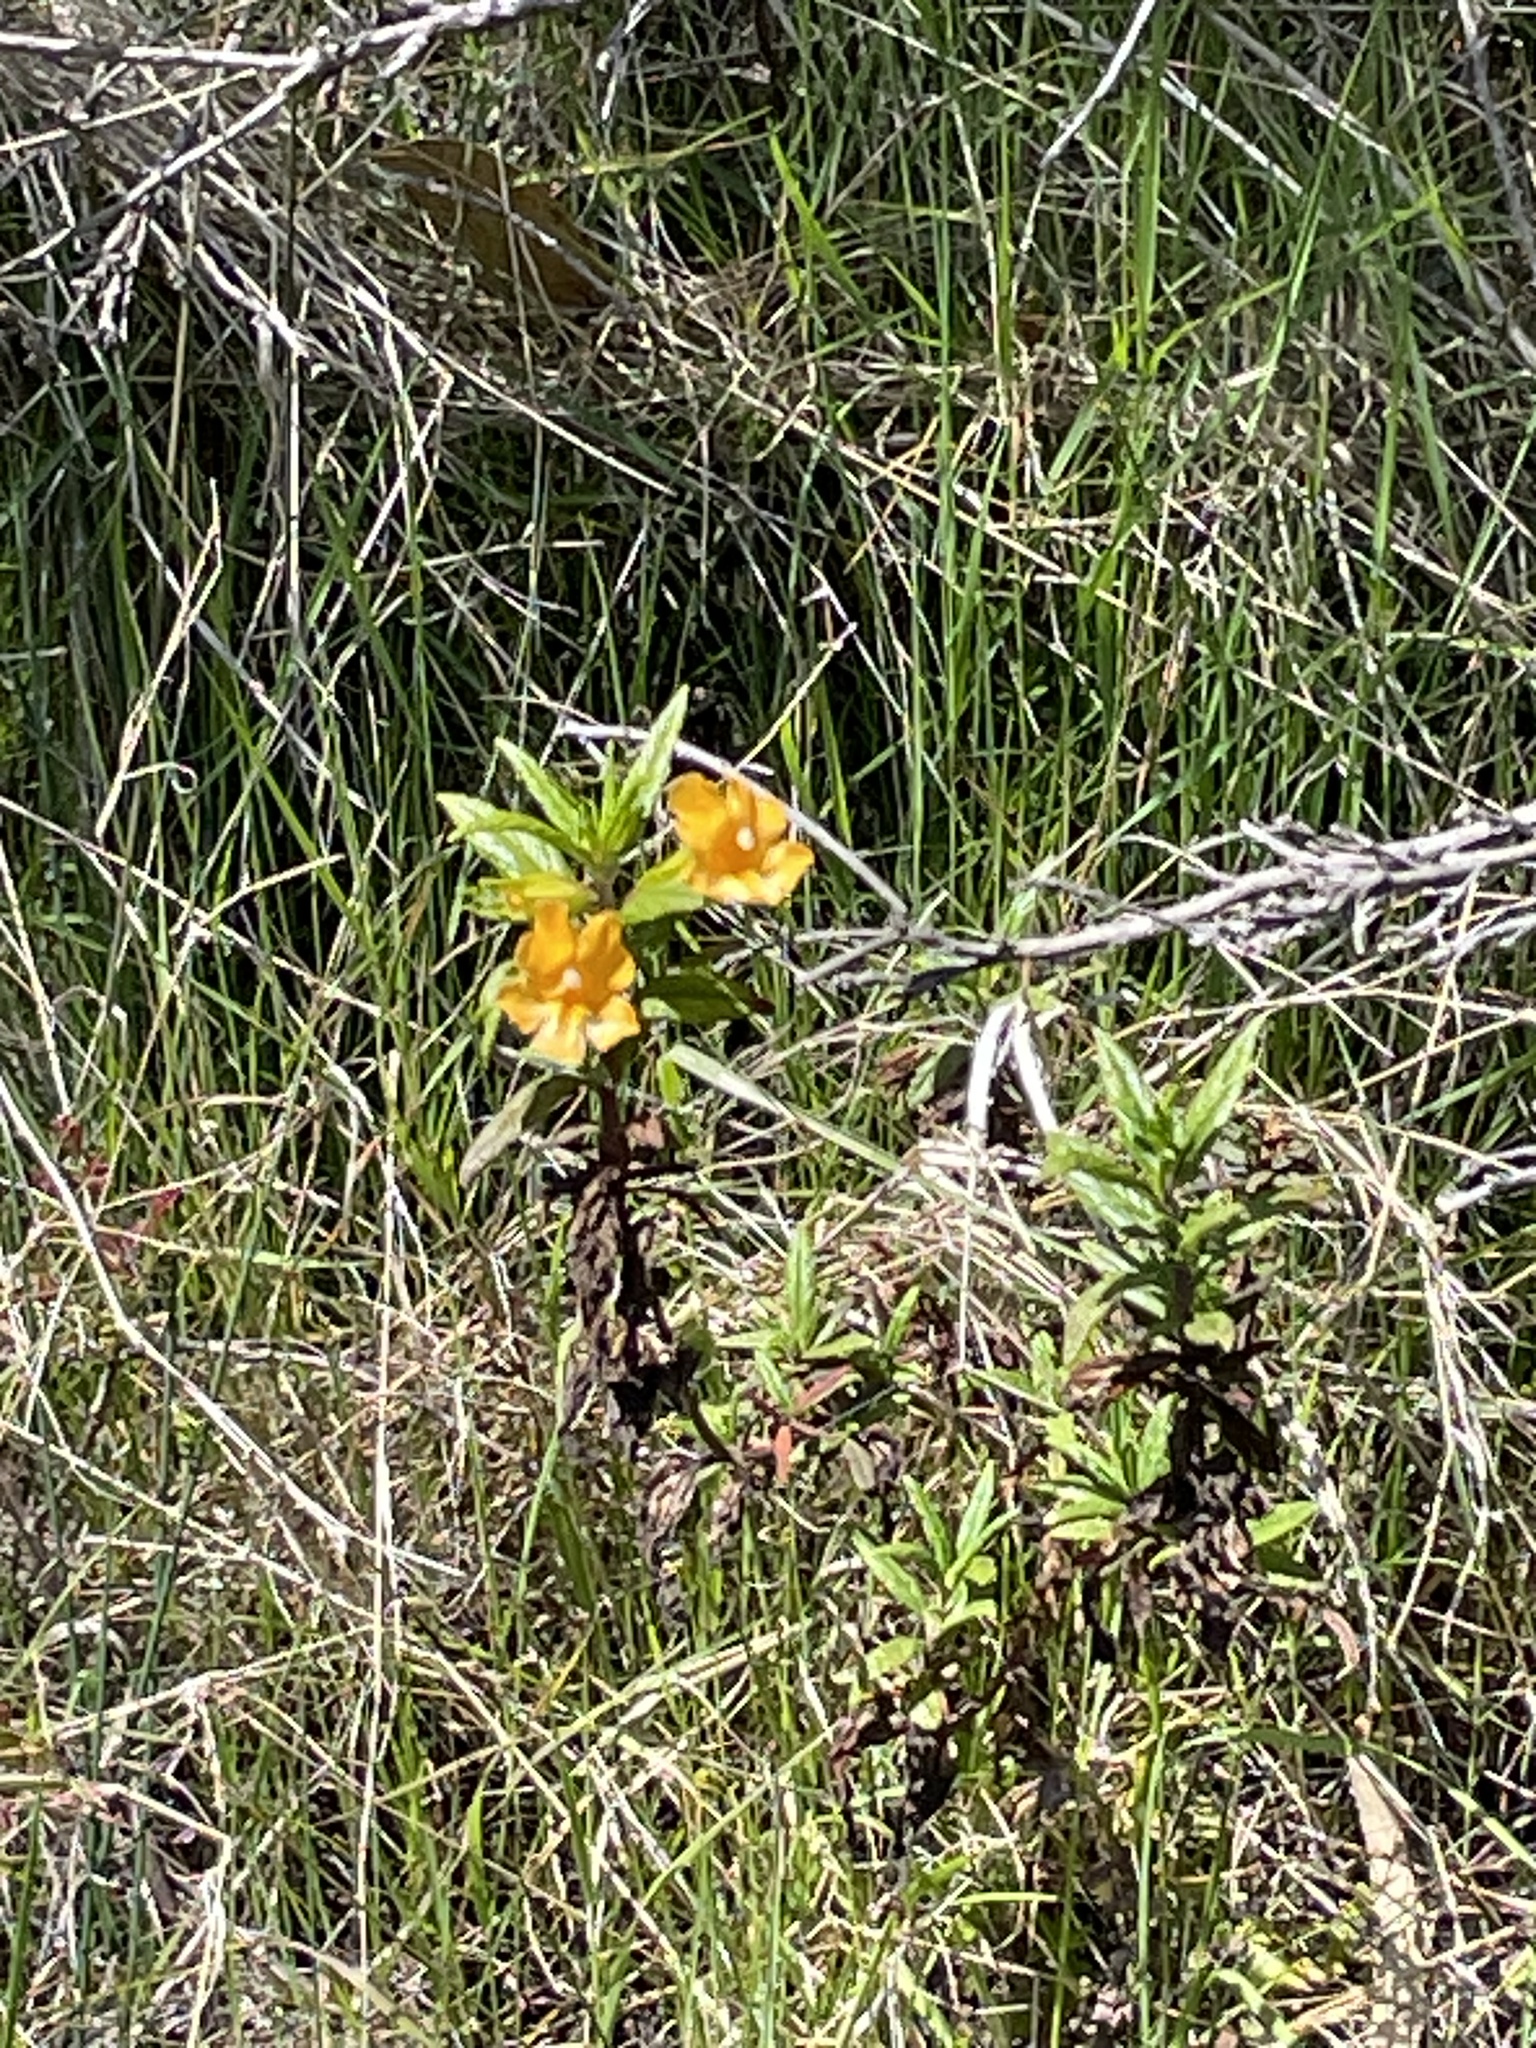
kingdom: Plantae
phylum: Tracheophyta
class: Magnoliopsida
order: Lamiales
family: Phrymaceae
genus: Diplacus
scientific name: Diplacus aurantiacus
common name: Bush monkey-flower
